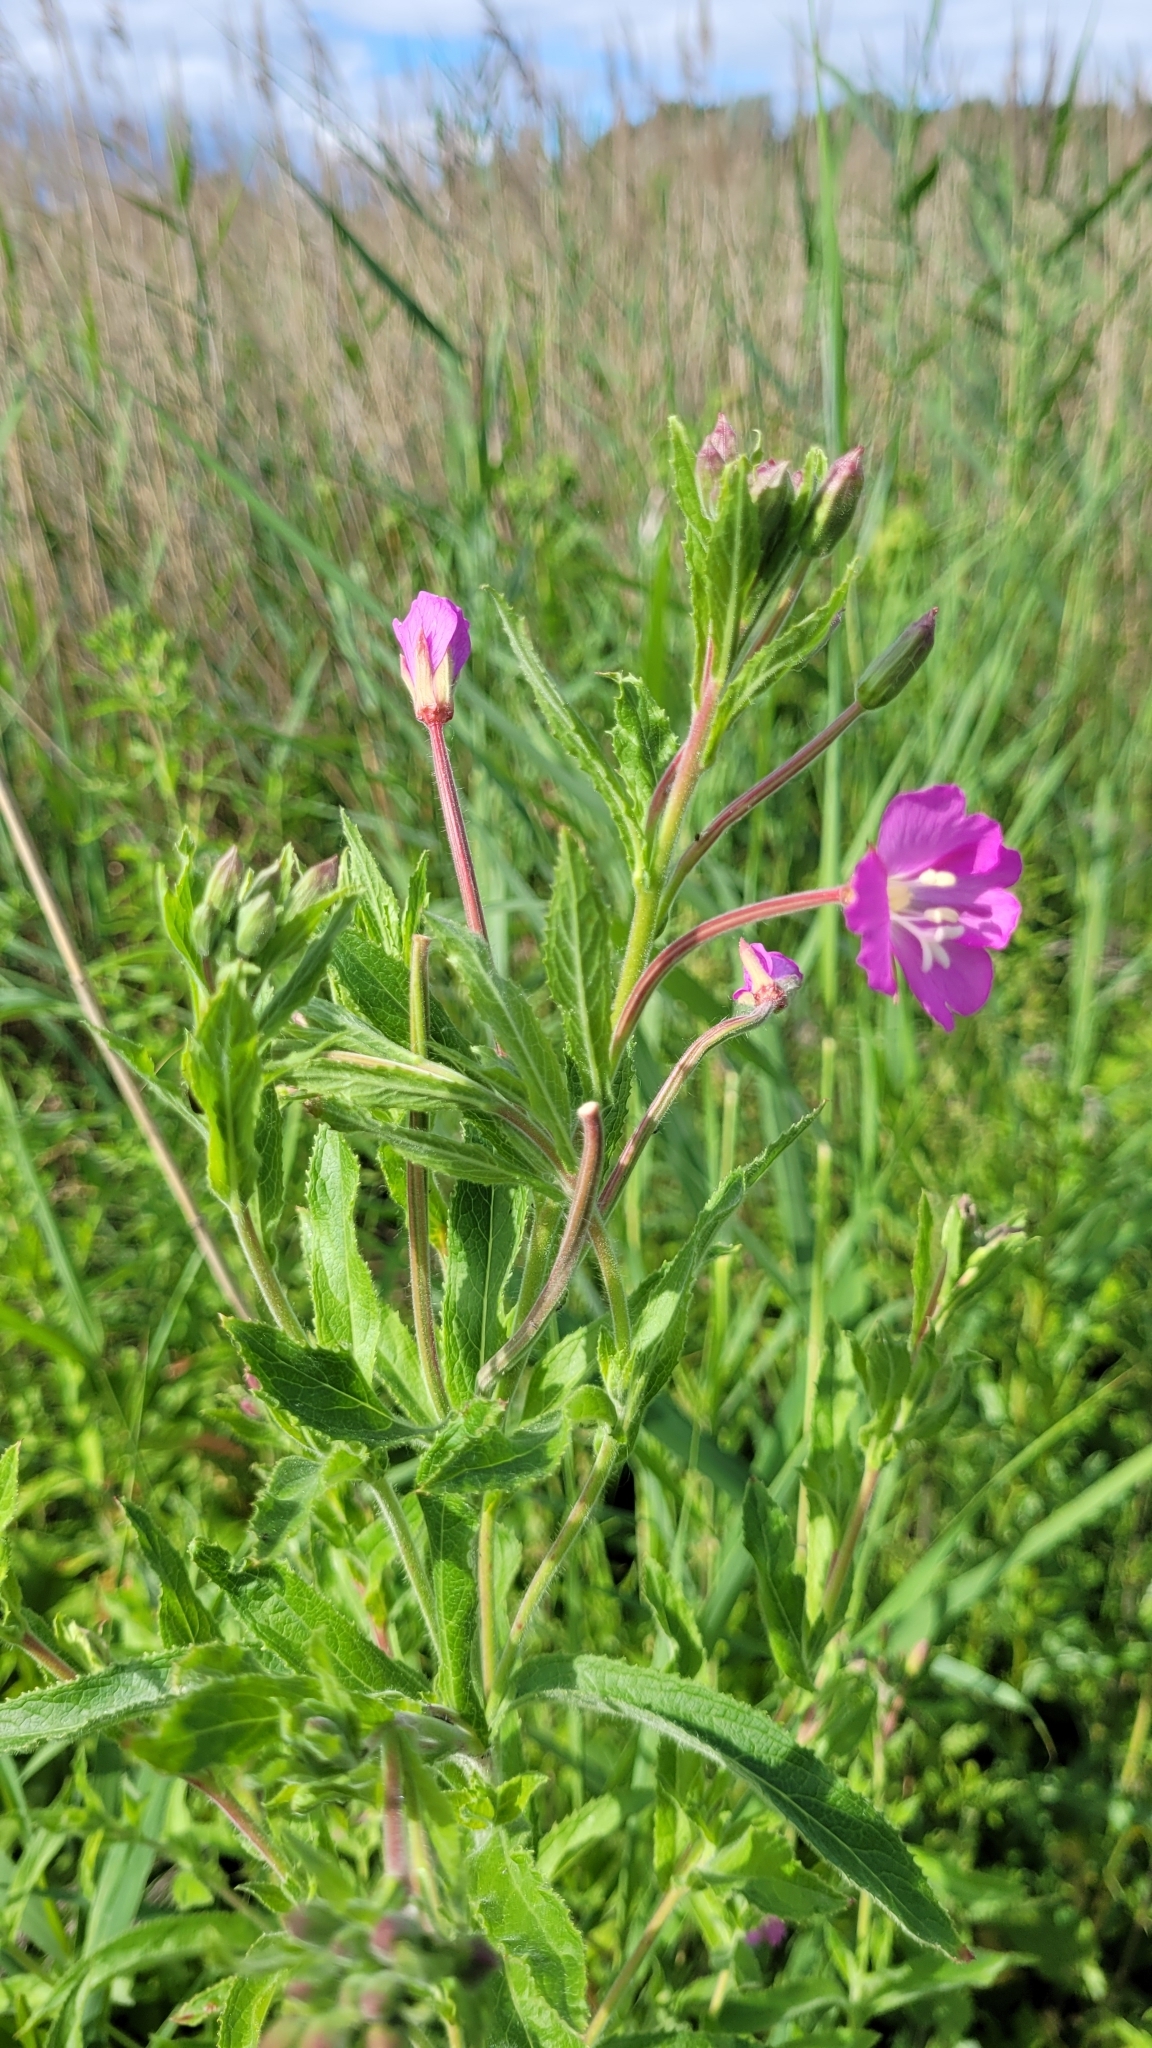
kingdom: Plantae
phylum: Tracheophyta
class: Magnoliopsida
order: Myrtales
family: Onagraceae
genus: Epilobium
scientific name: Epilobium hirsutum
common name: Great willowherb
